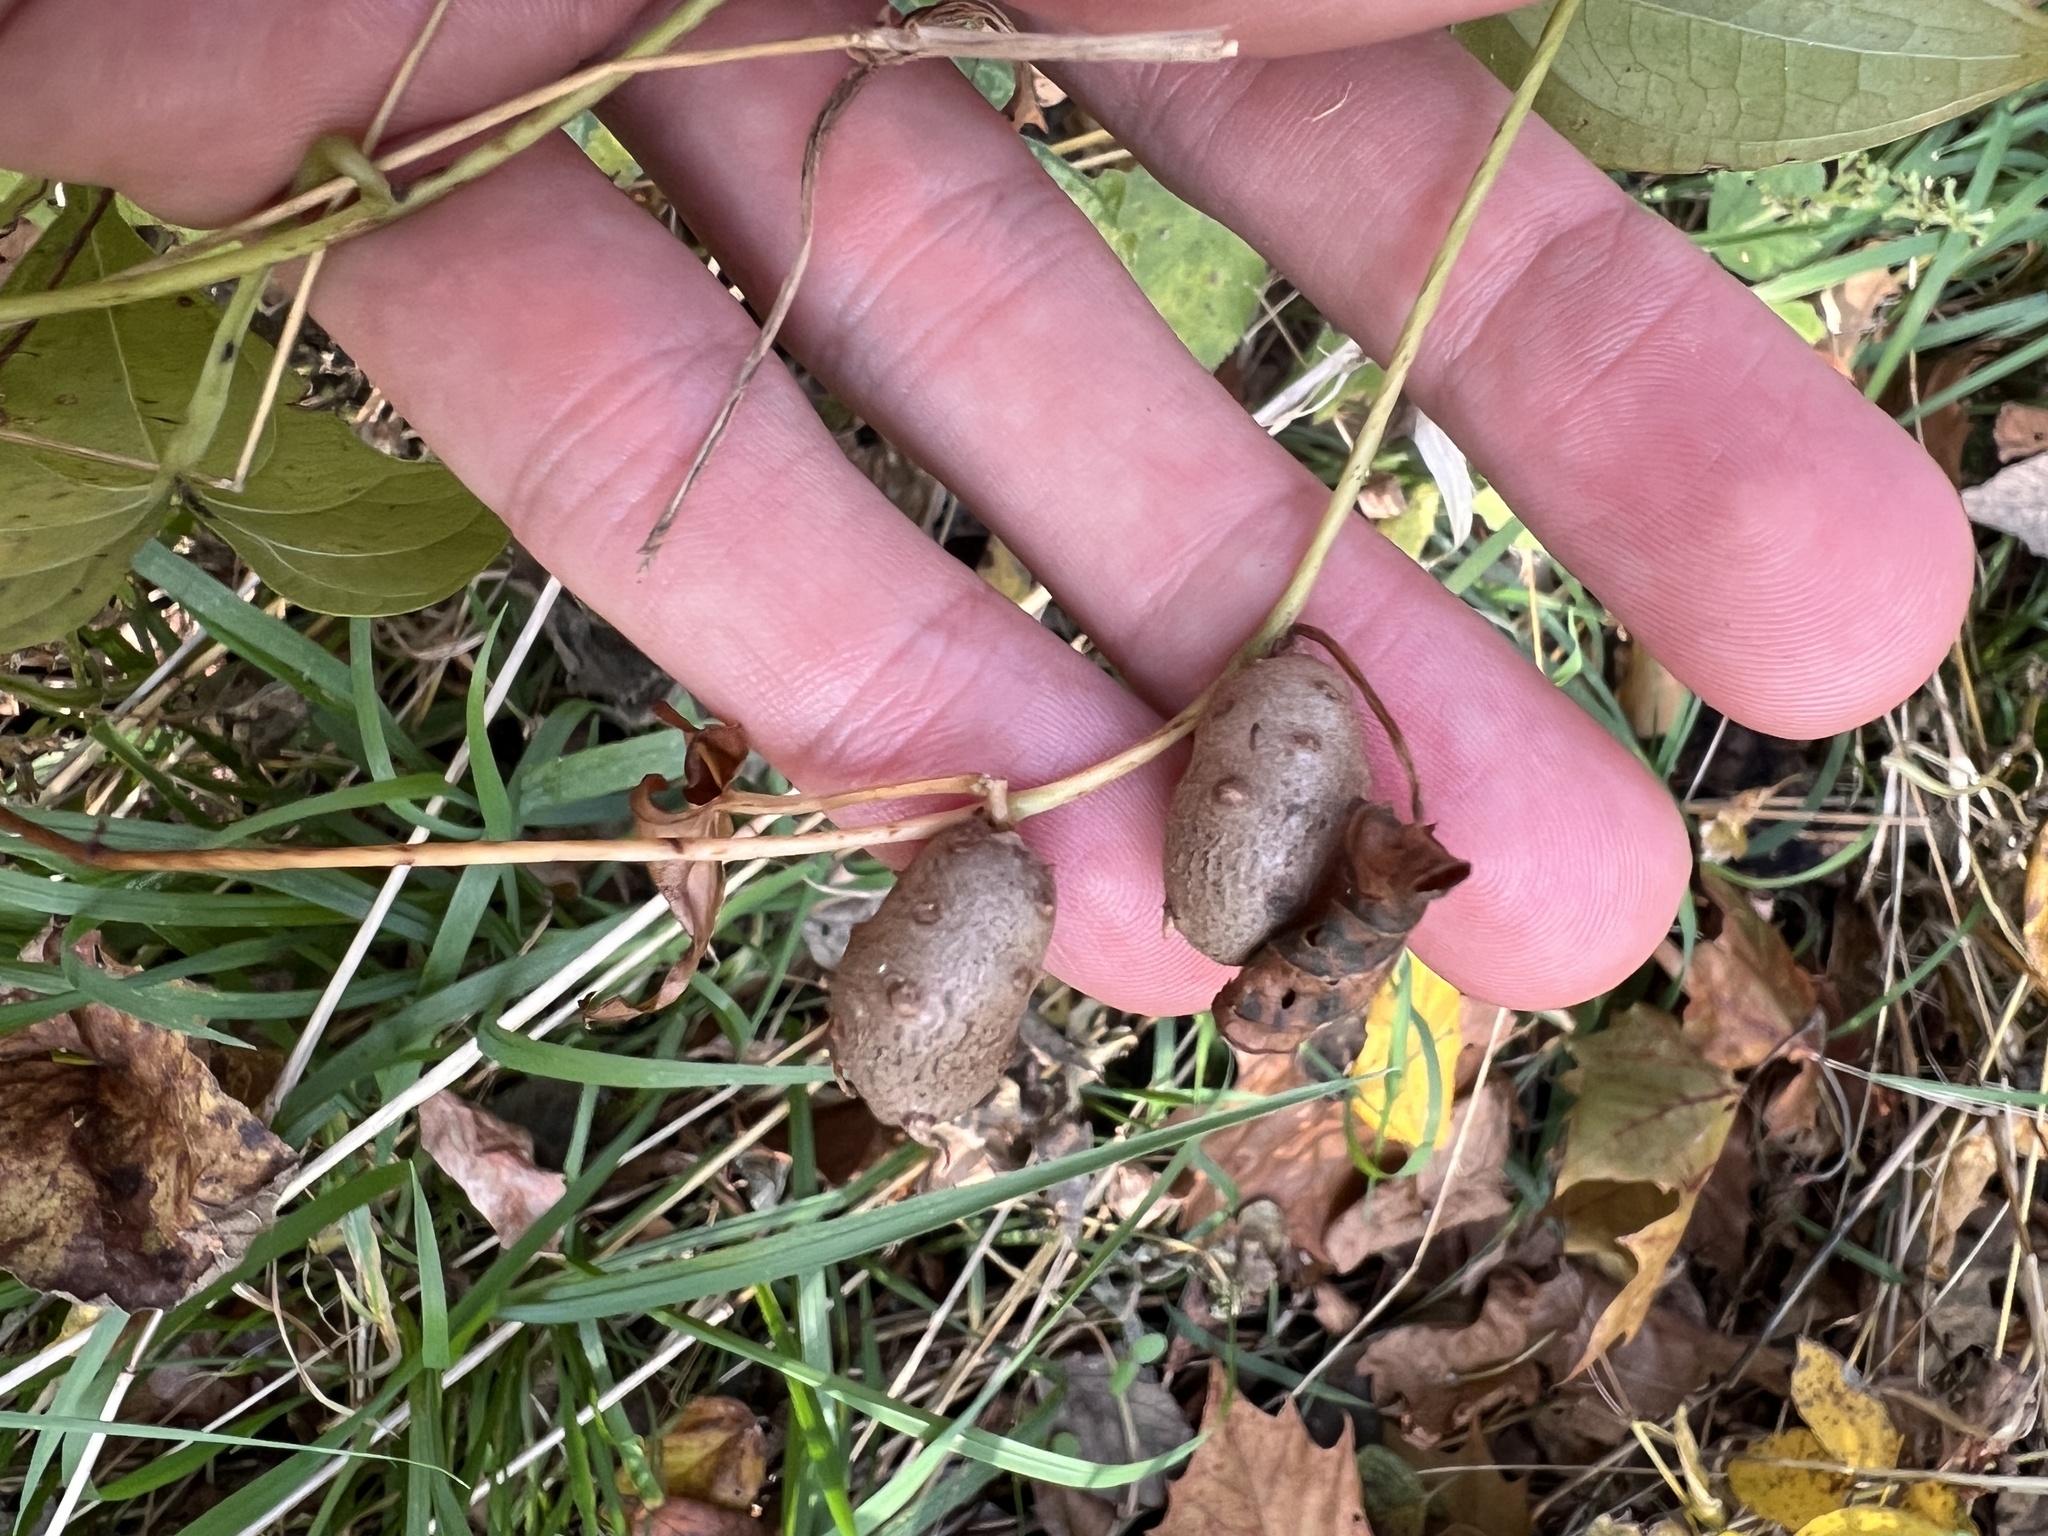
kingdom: Plantae
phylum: Tracheophyta
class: Liliopsida
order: Dioscoreales
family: Dioscoreaceae
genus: Dioscorea
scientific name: Dioscorea polystachya
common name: Chinese yam
